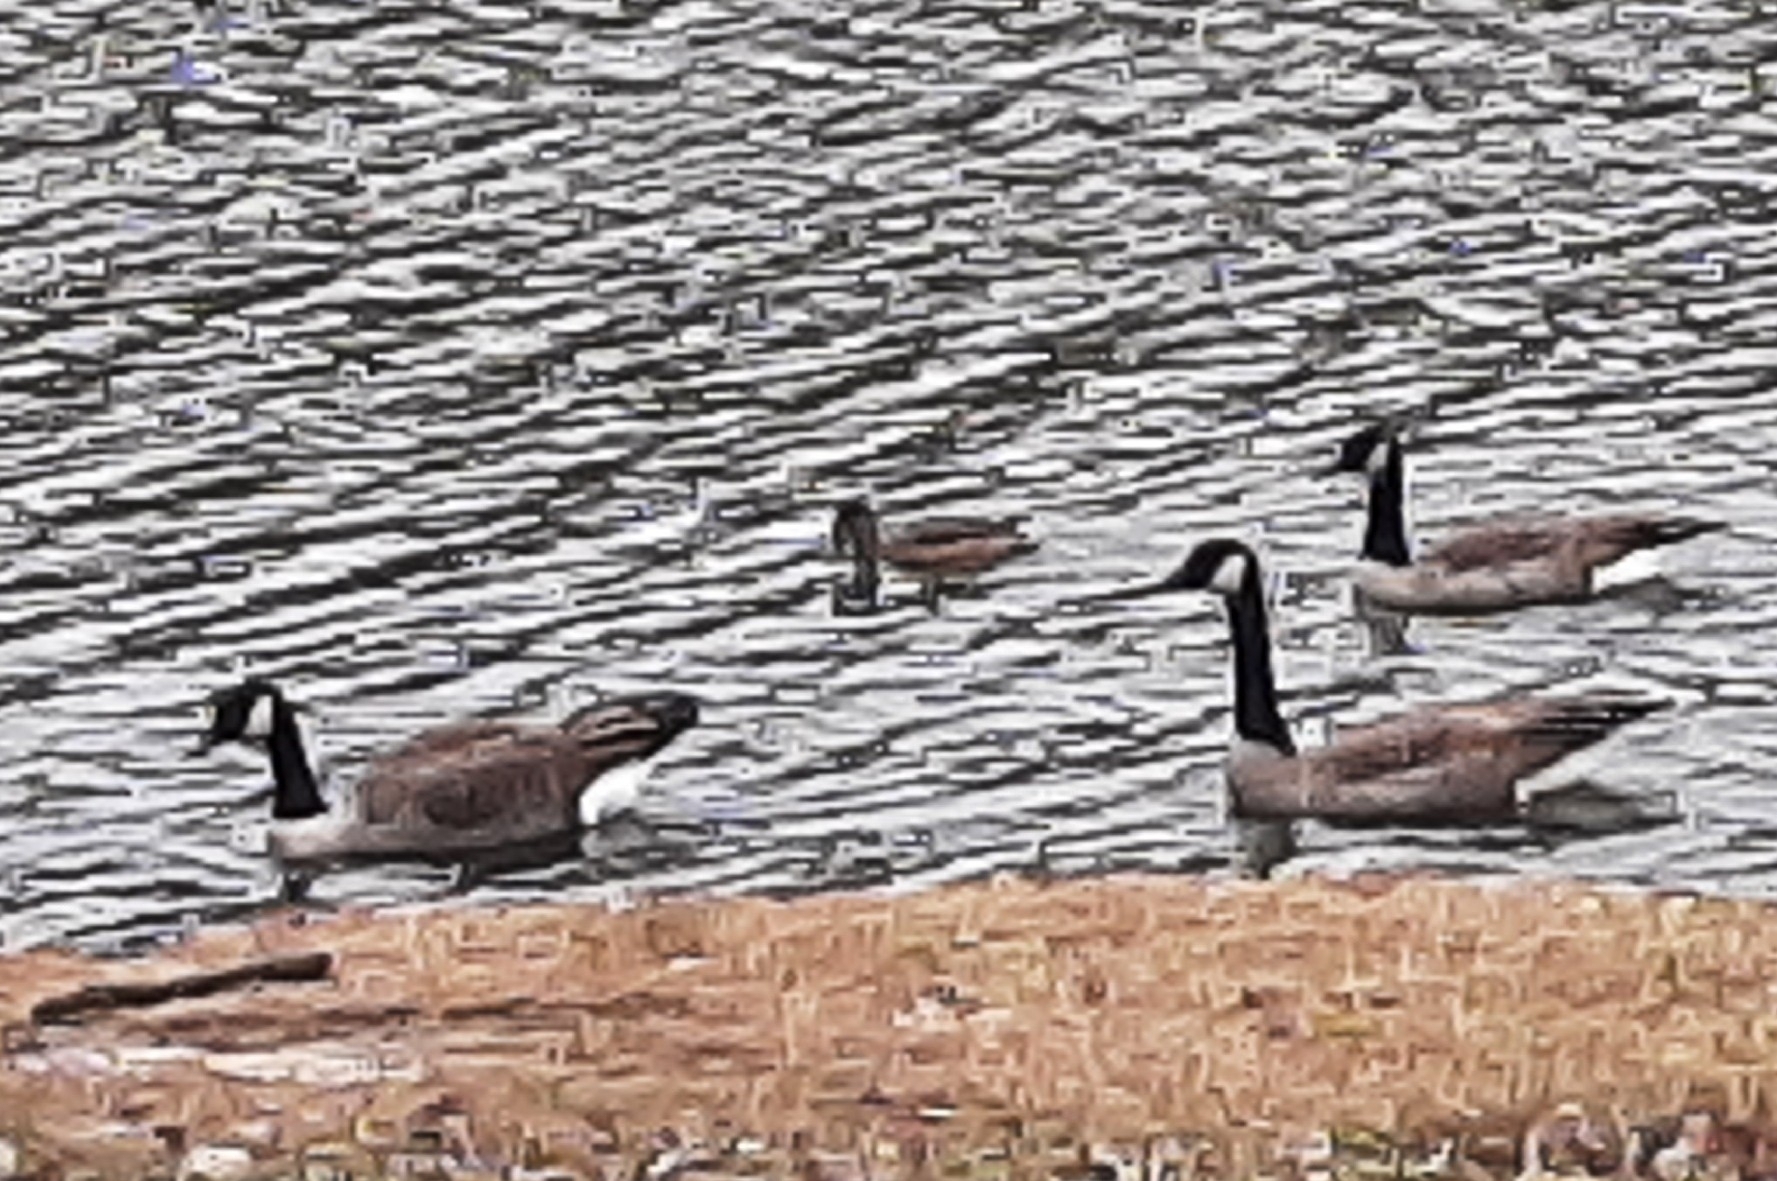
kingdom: Animalia
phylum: Chordata
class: Aves
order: Anseriformes
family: Anatidae
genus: Branta
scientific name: Branta canadensis
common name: Canada goose
